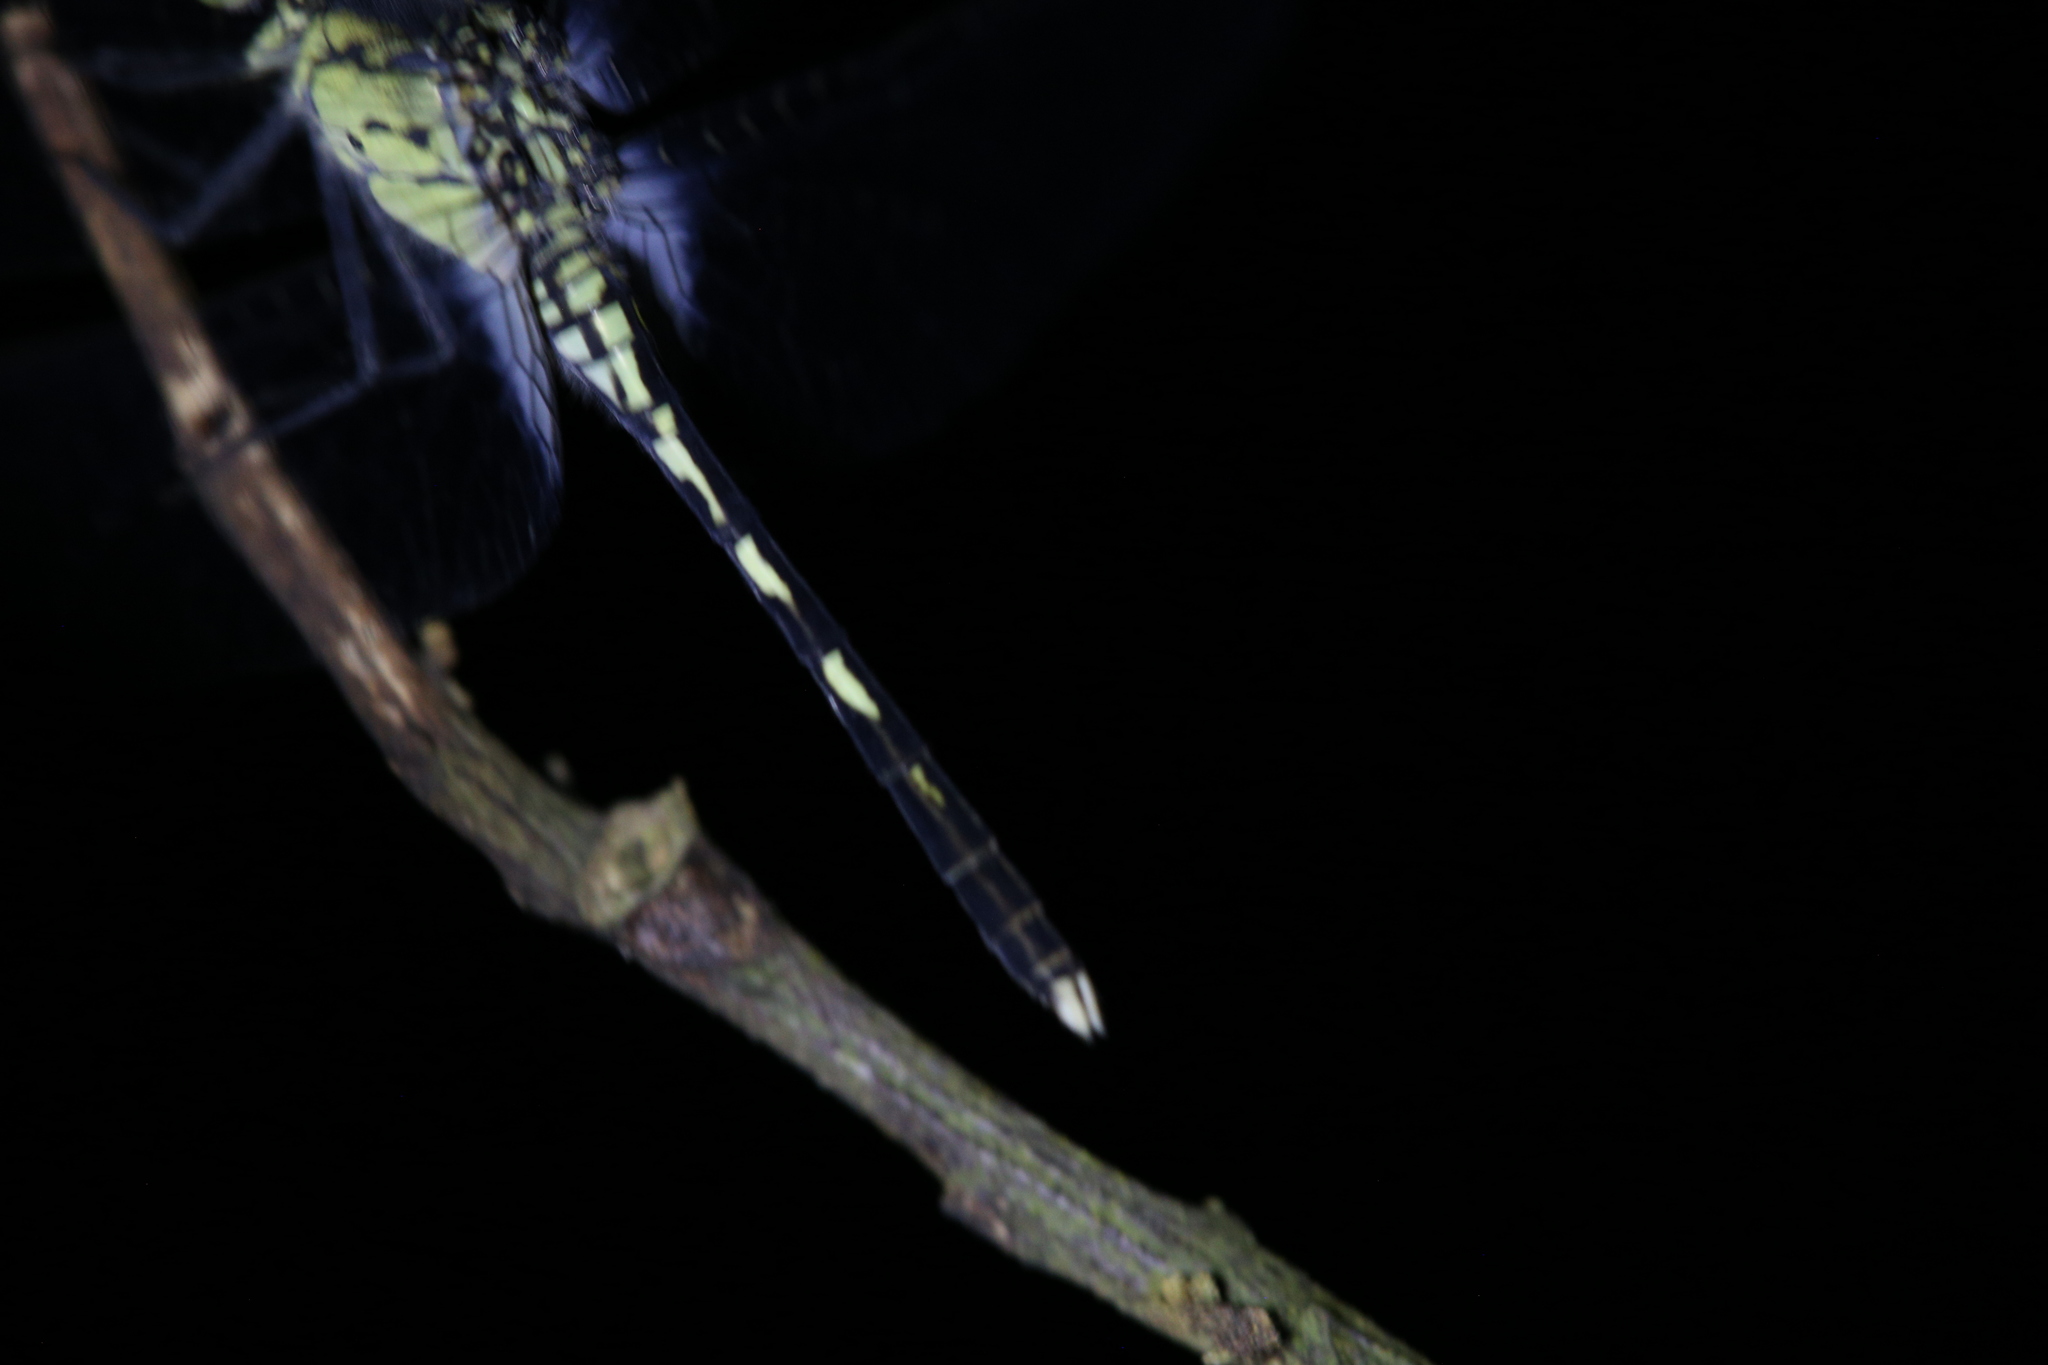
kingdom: Animalia
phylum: Arthropoda
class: Insecta
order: Odonata
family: Libellulidae
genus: Diplacodes
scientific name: Diplacodes trivialis
